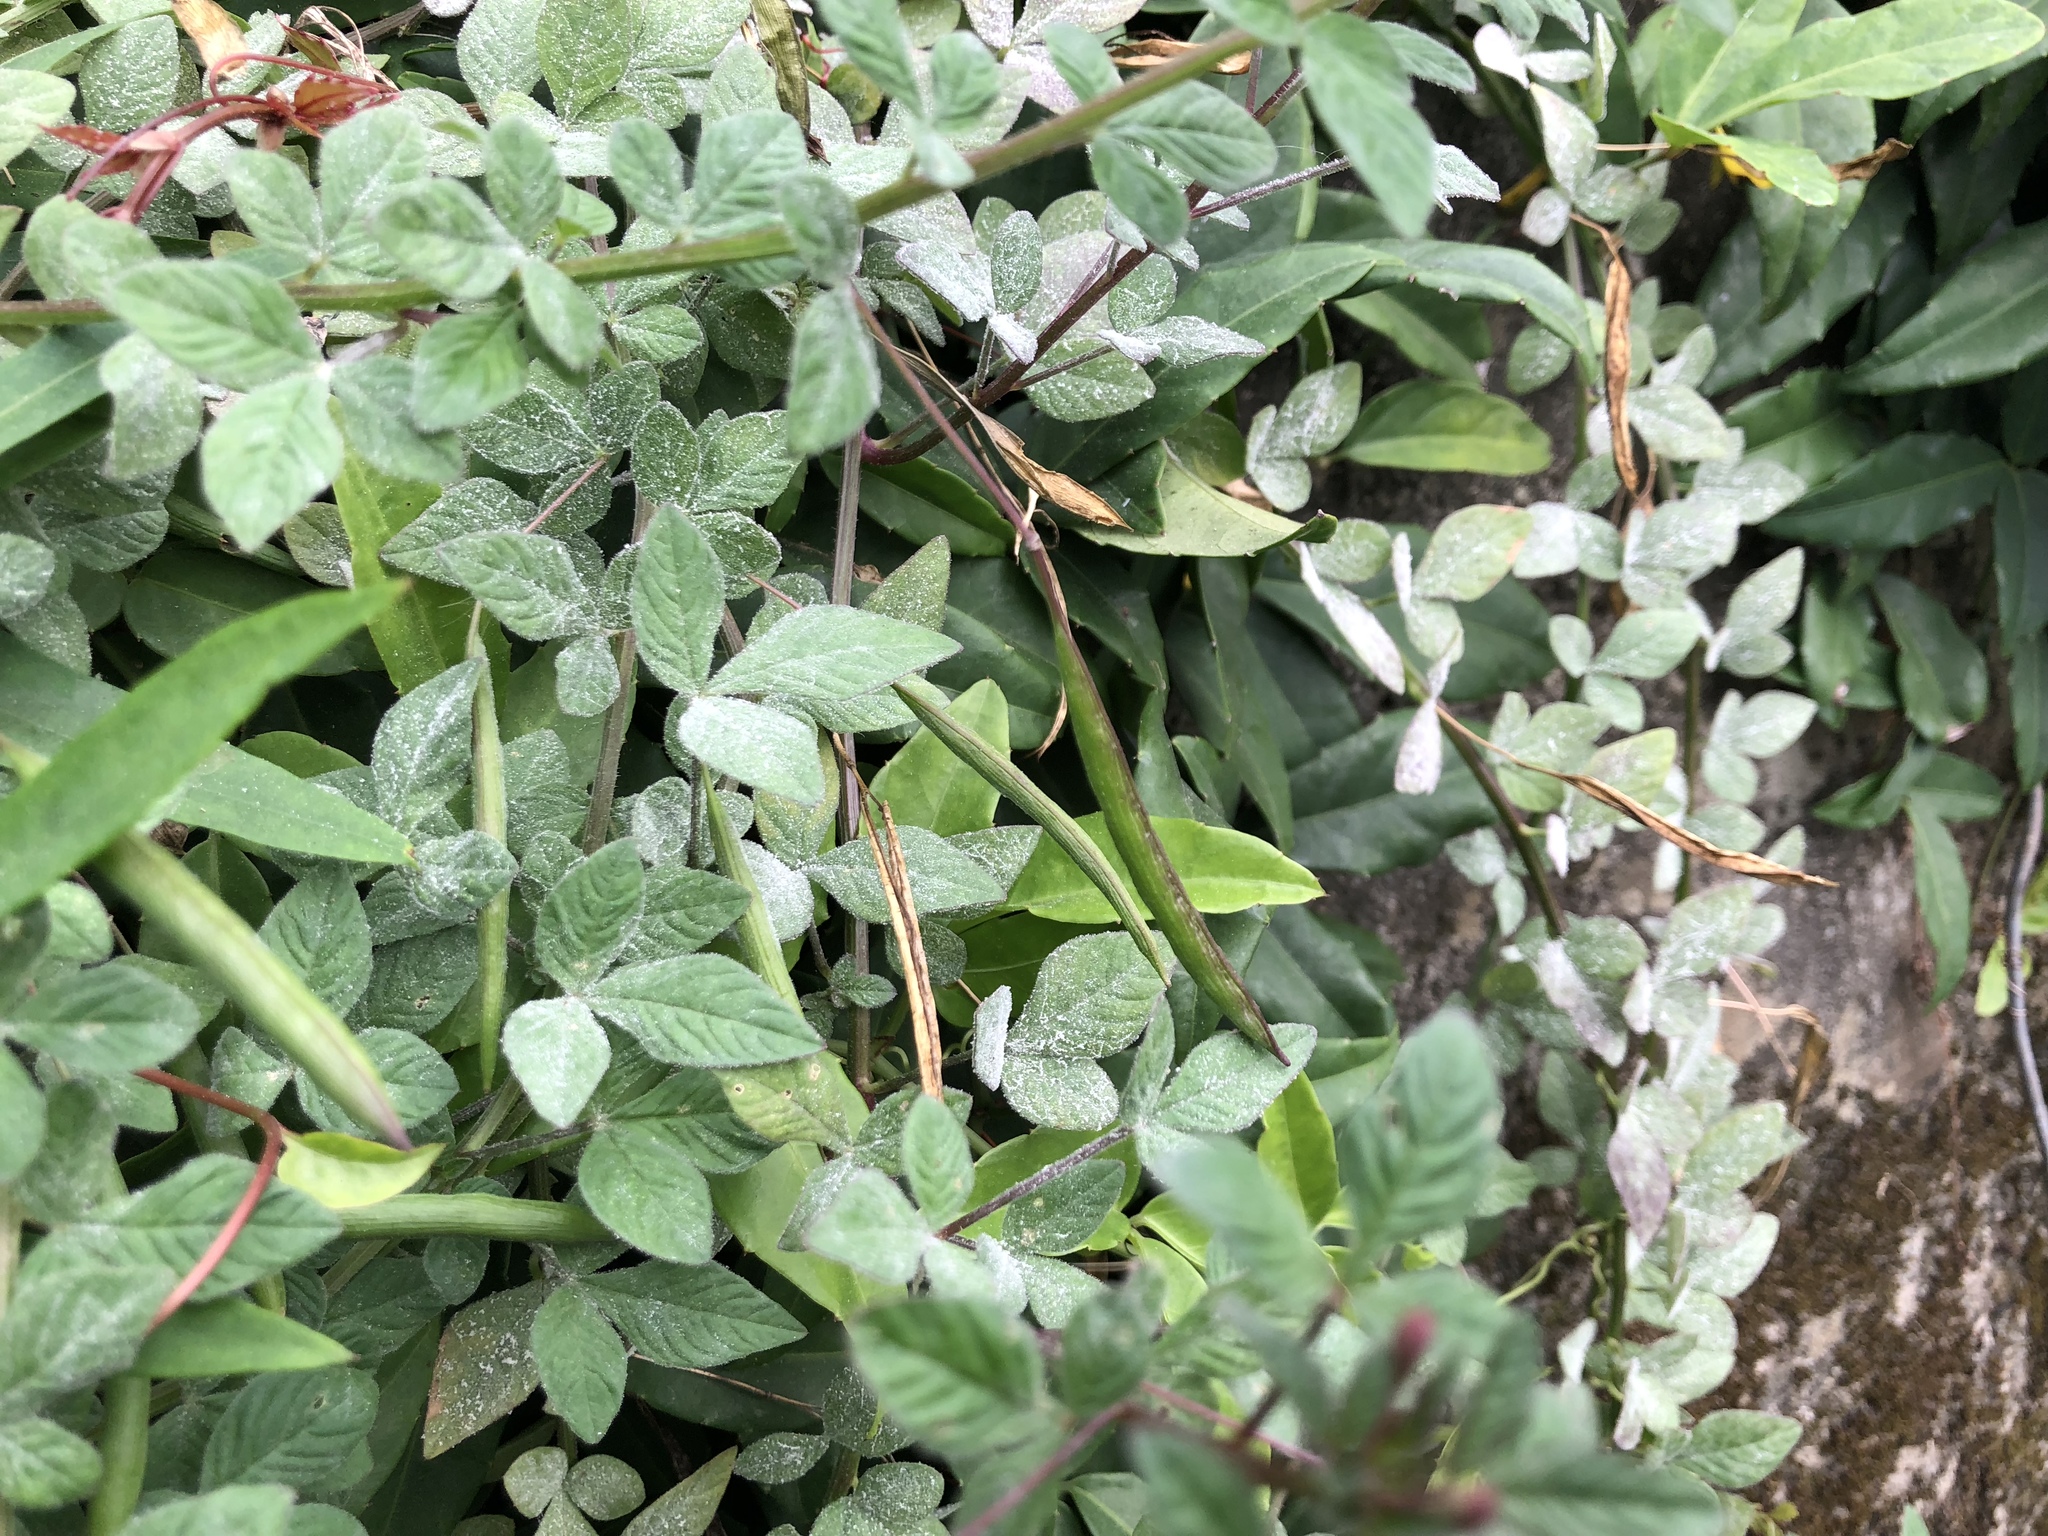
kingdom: Plantae
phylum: Tracheophyta
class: Magnoliopsida
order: Brassicales
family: Cleomaceae
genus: Sieruela
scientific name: Sieruela rutidosperma
